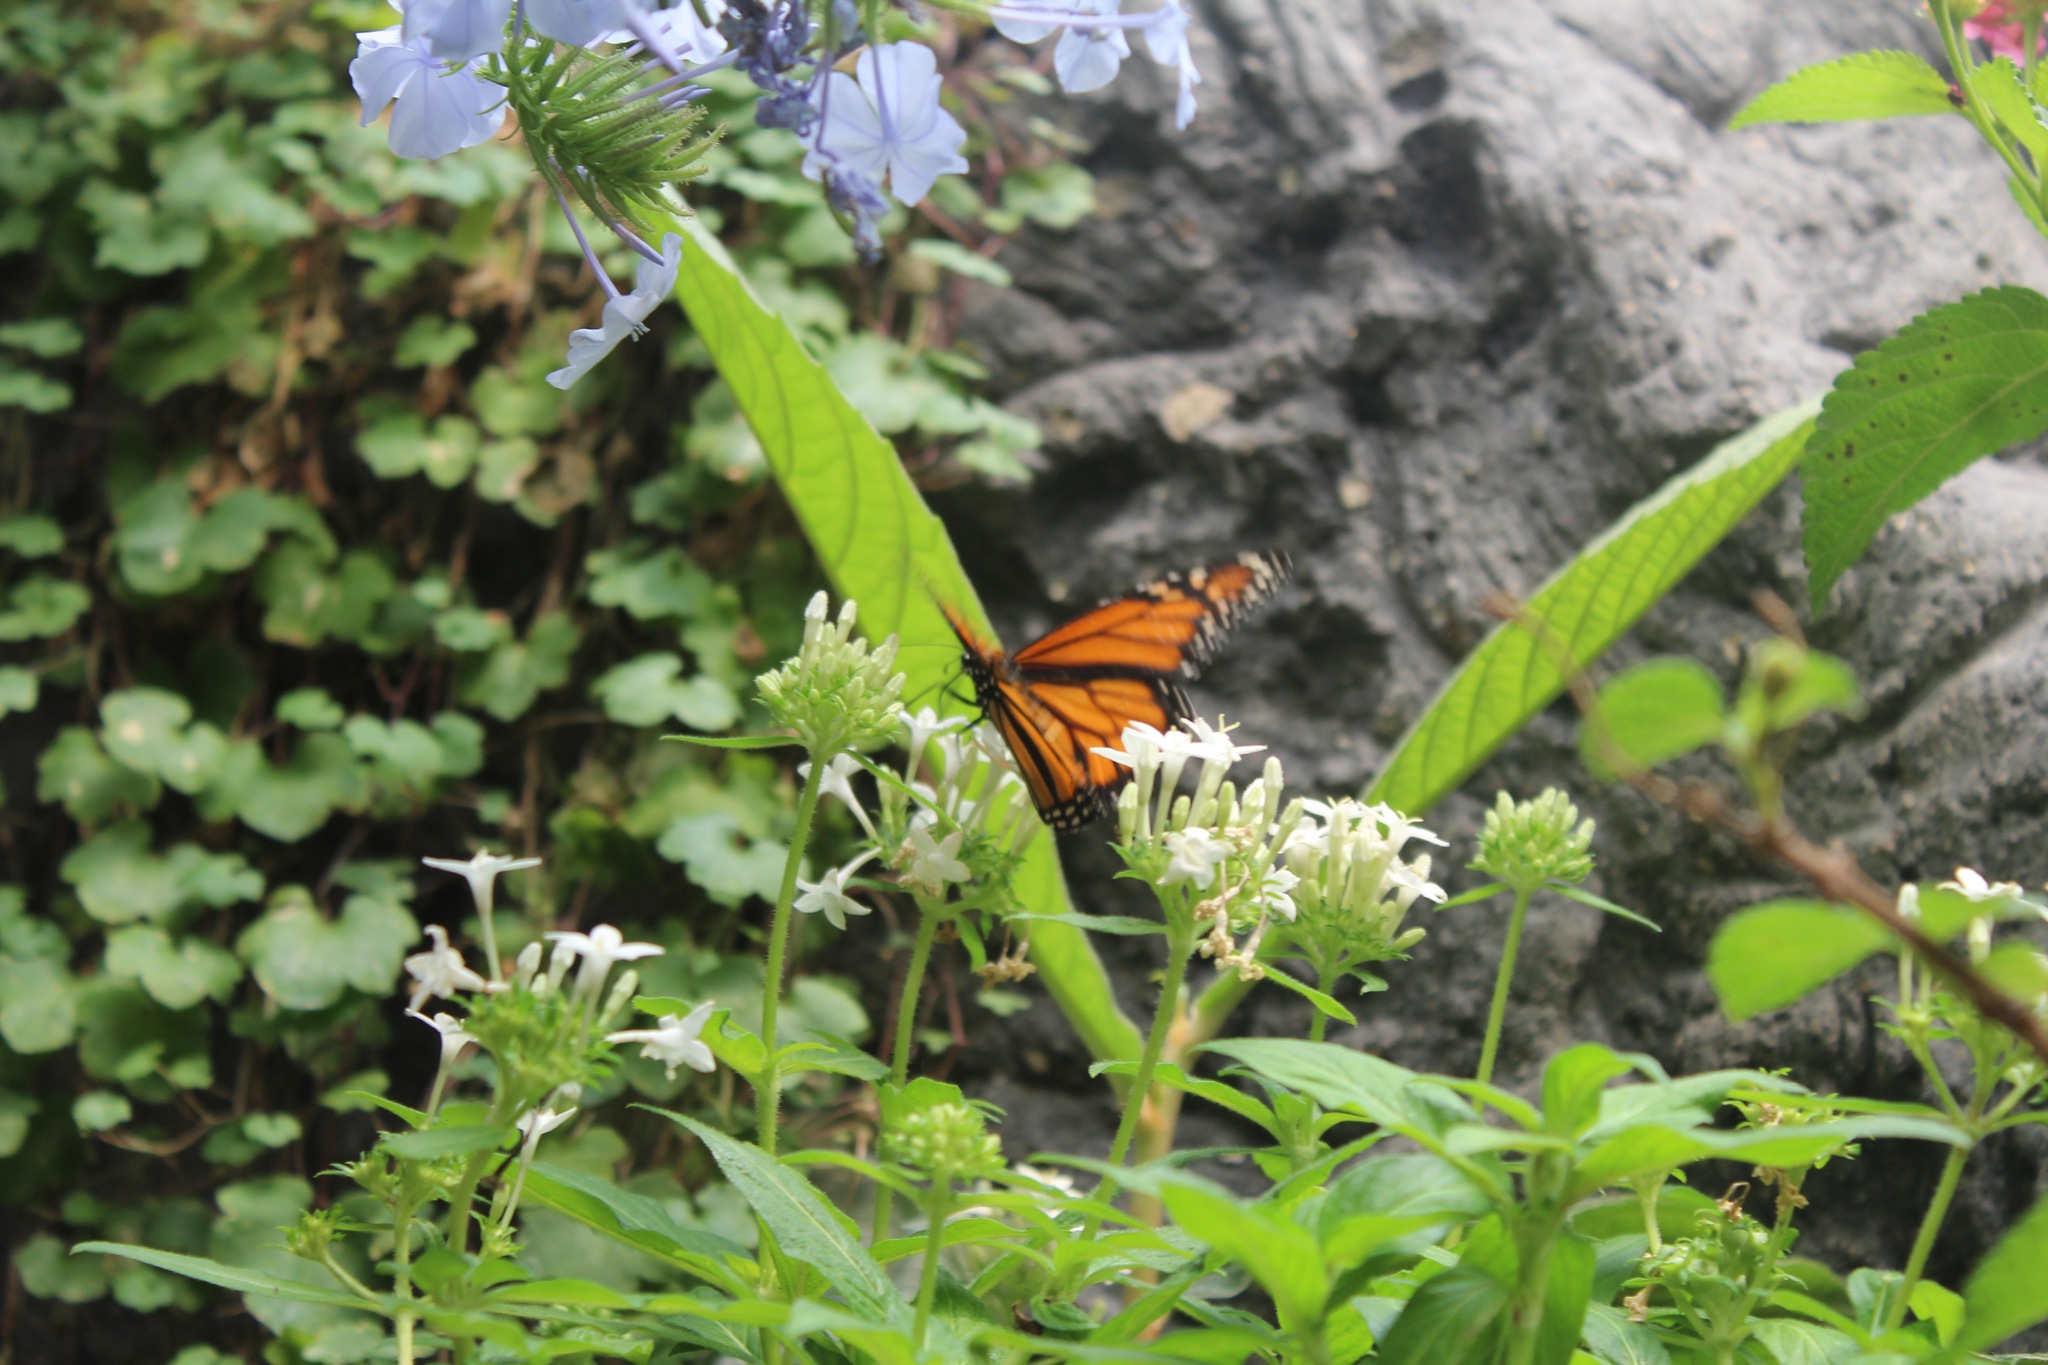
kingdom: Animalia
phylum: Arthropoda
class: Insecta
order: Lepidoptera
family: Nymphalidae
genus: Danaus
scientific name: Danaus plexippus
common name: Monarch
